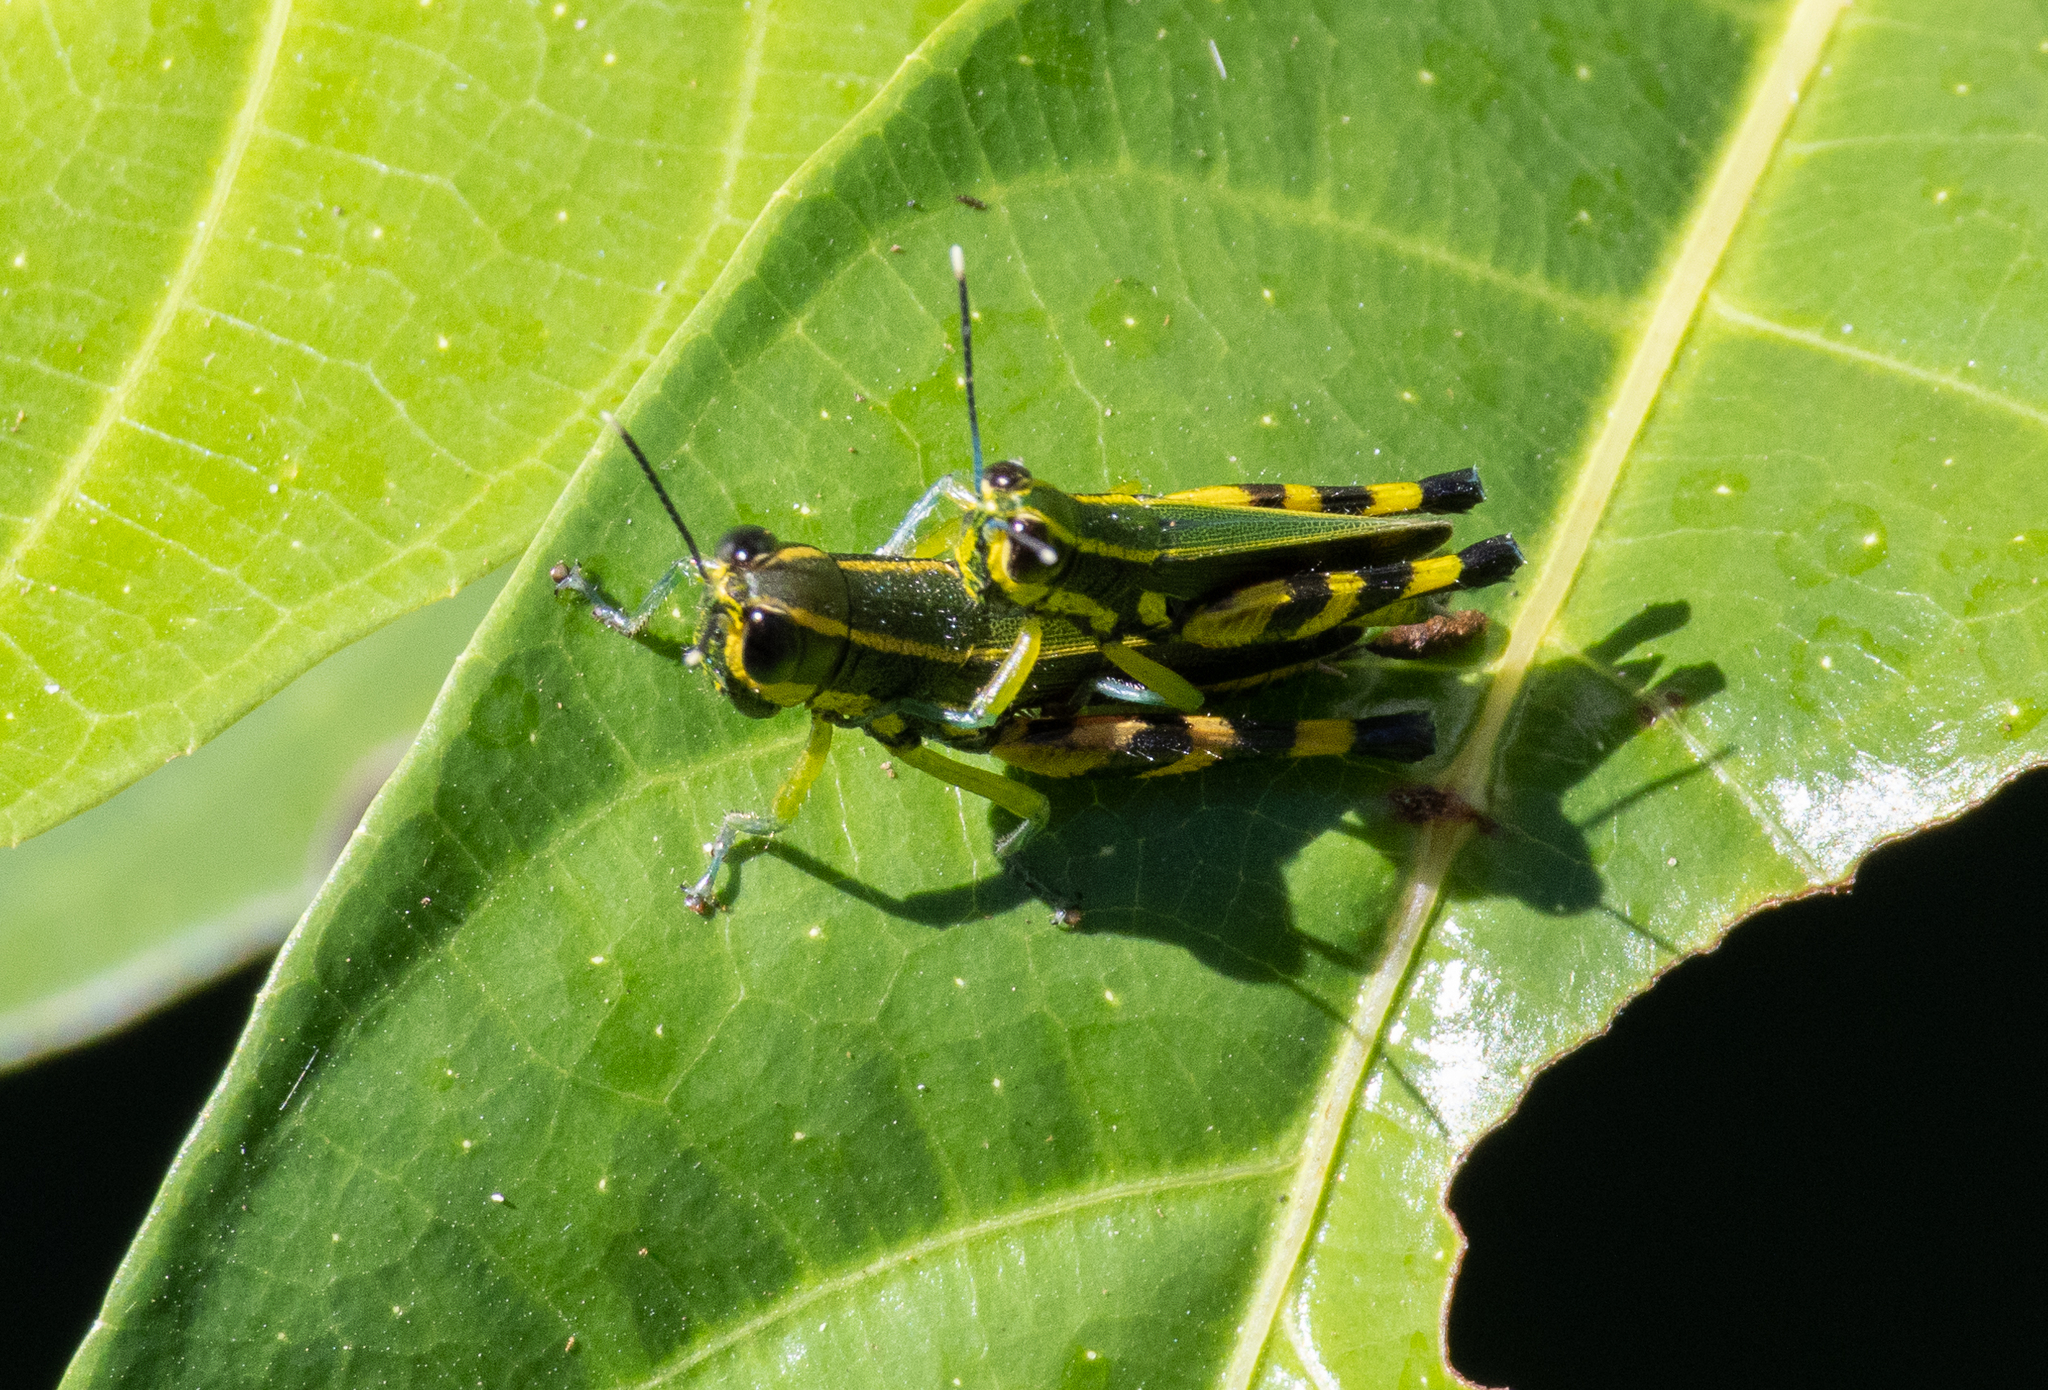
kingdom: Animalia
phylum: Arthropoda
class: Insecta
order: Orthoptera
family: Acrididae
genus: Tauchira
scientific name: Tauchira polychroa
